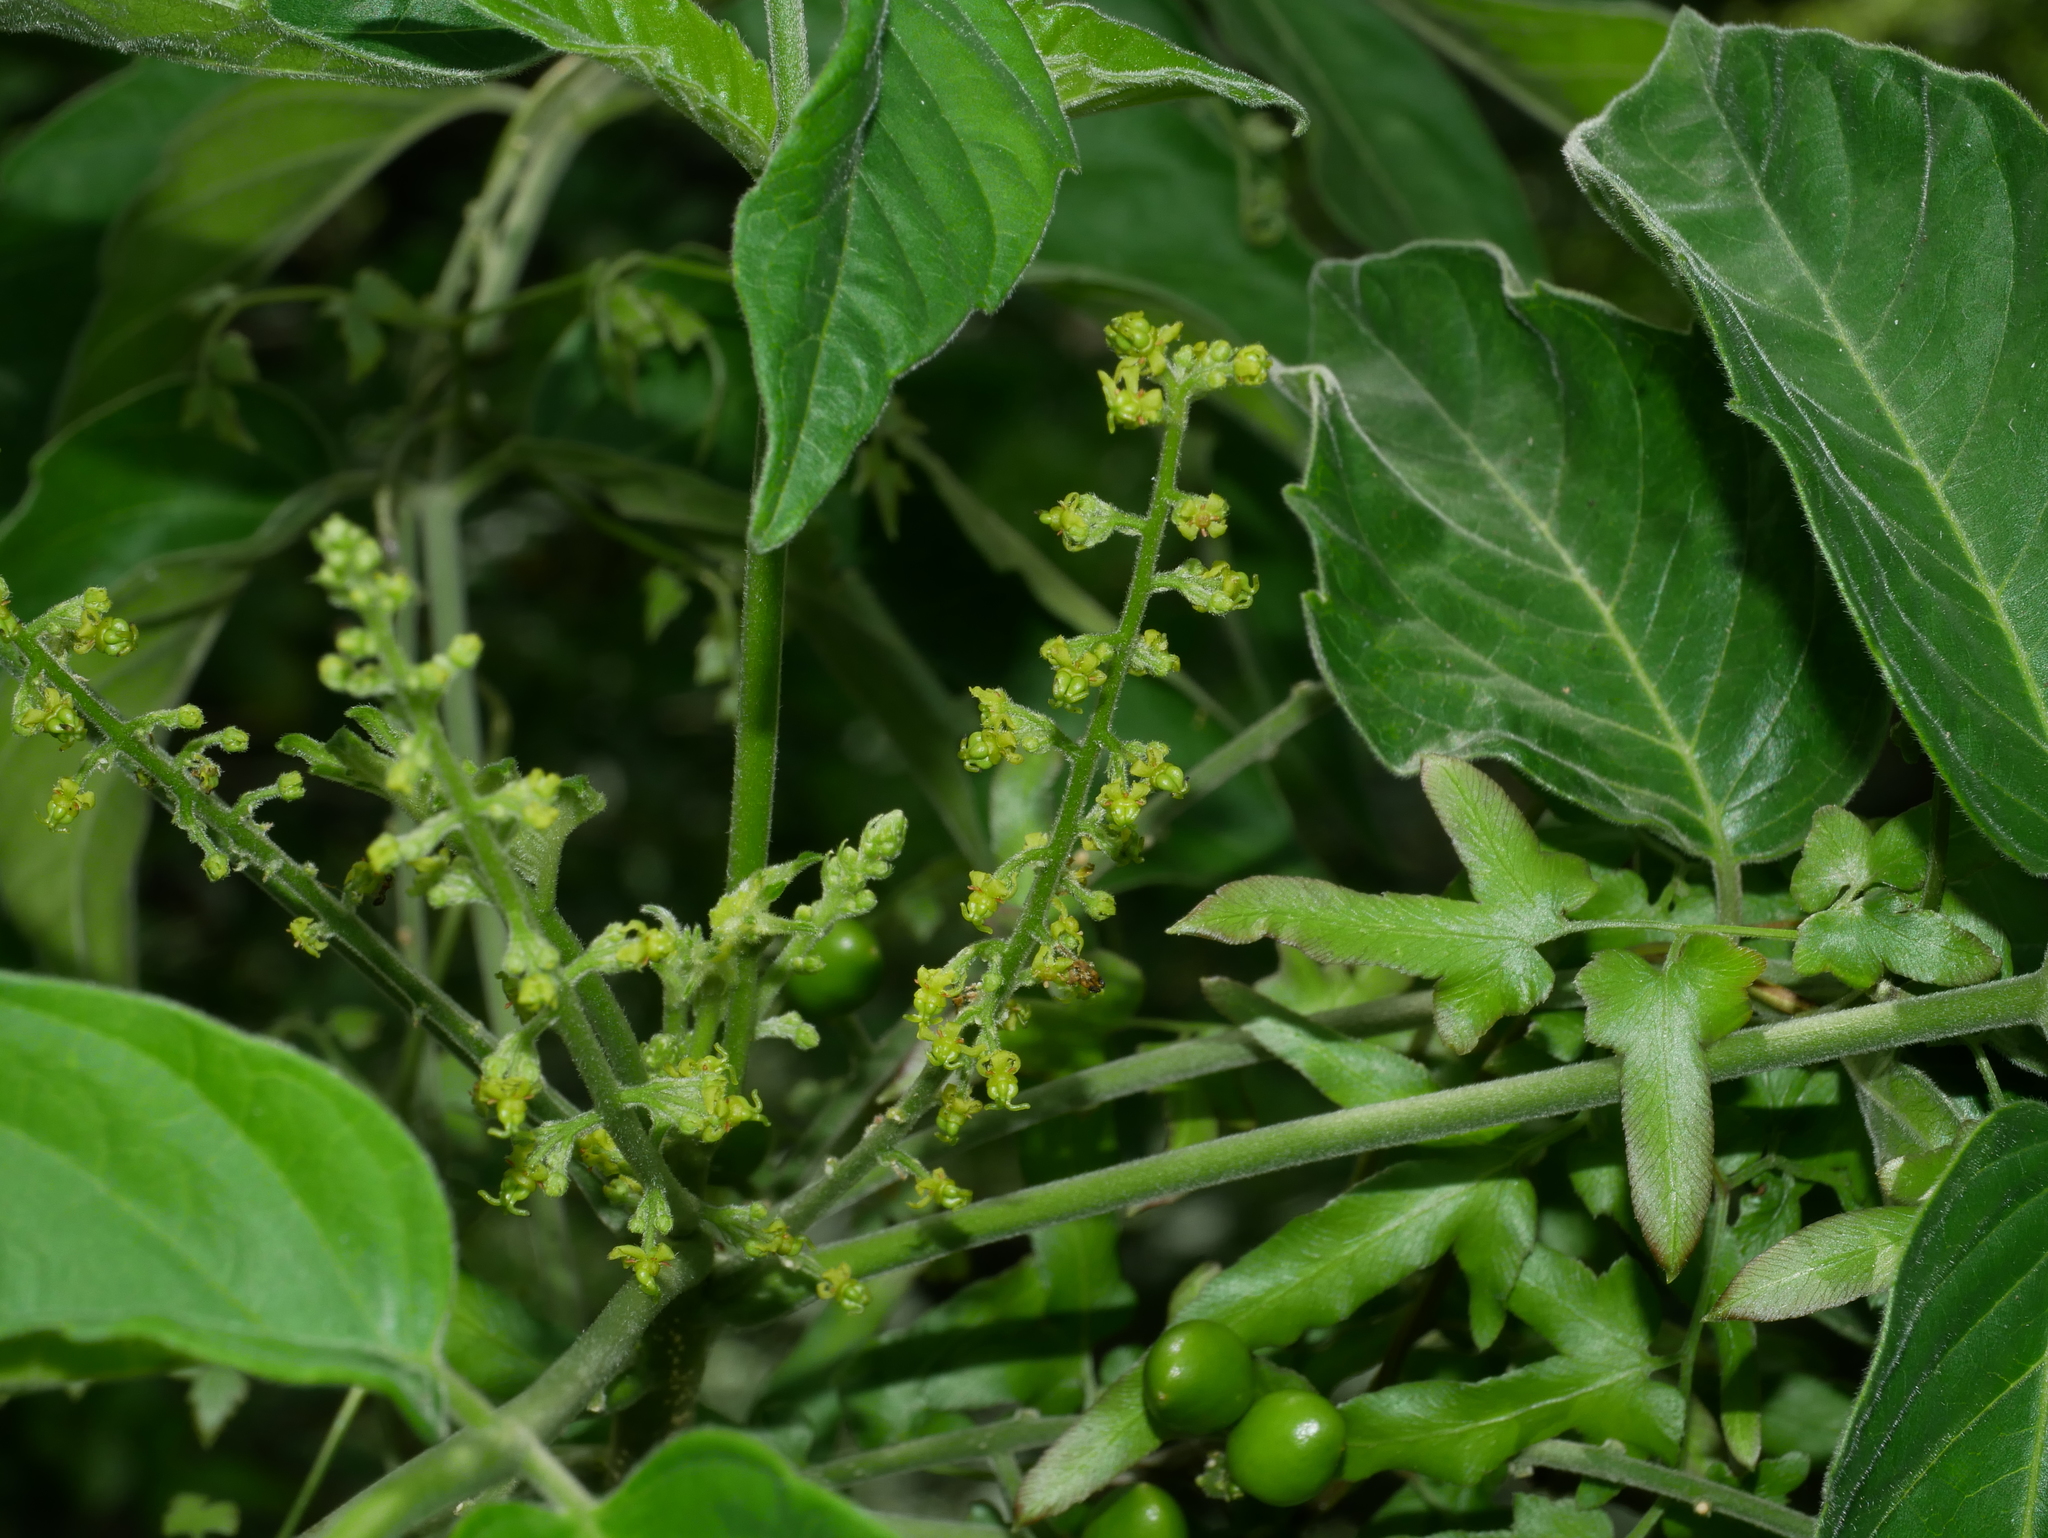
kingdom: Plantae
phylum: Tracheophyta
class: Magnoliopsida
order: Sapindales
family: Simaroubaceae
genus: Brucea
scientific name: Brucea javanica
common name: Macassar kernels
